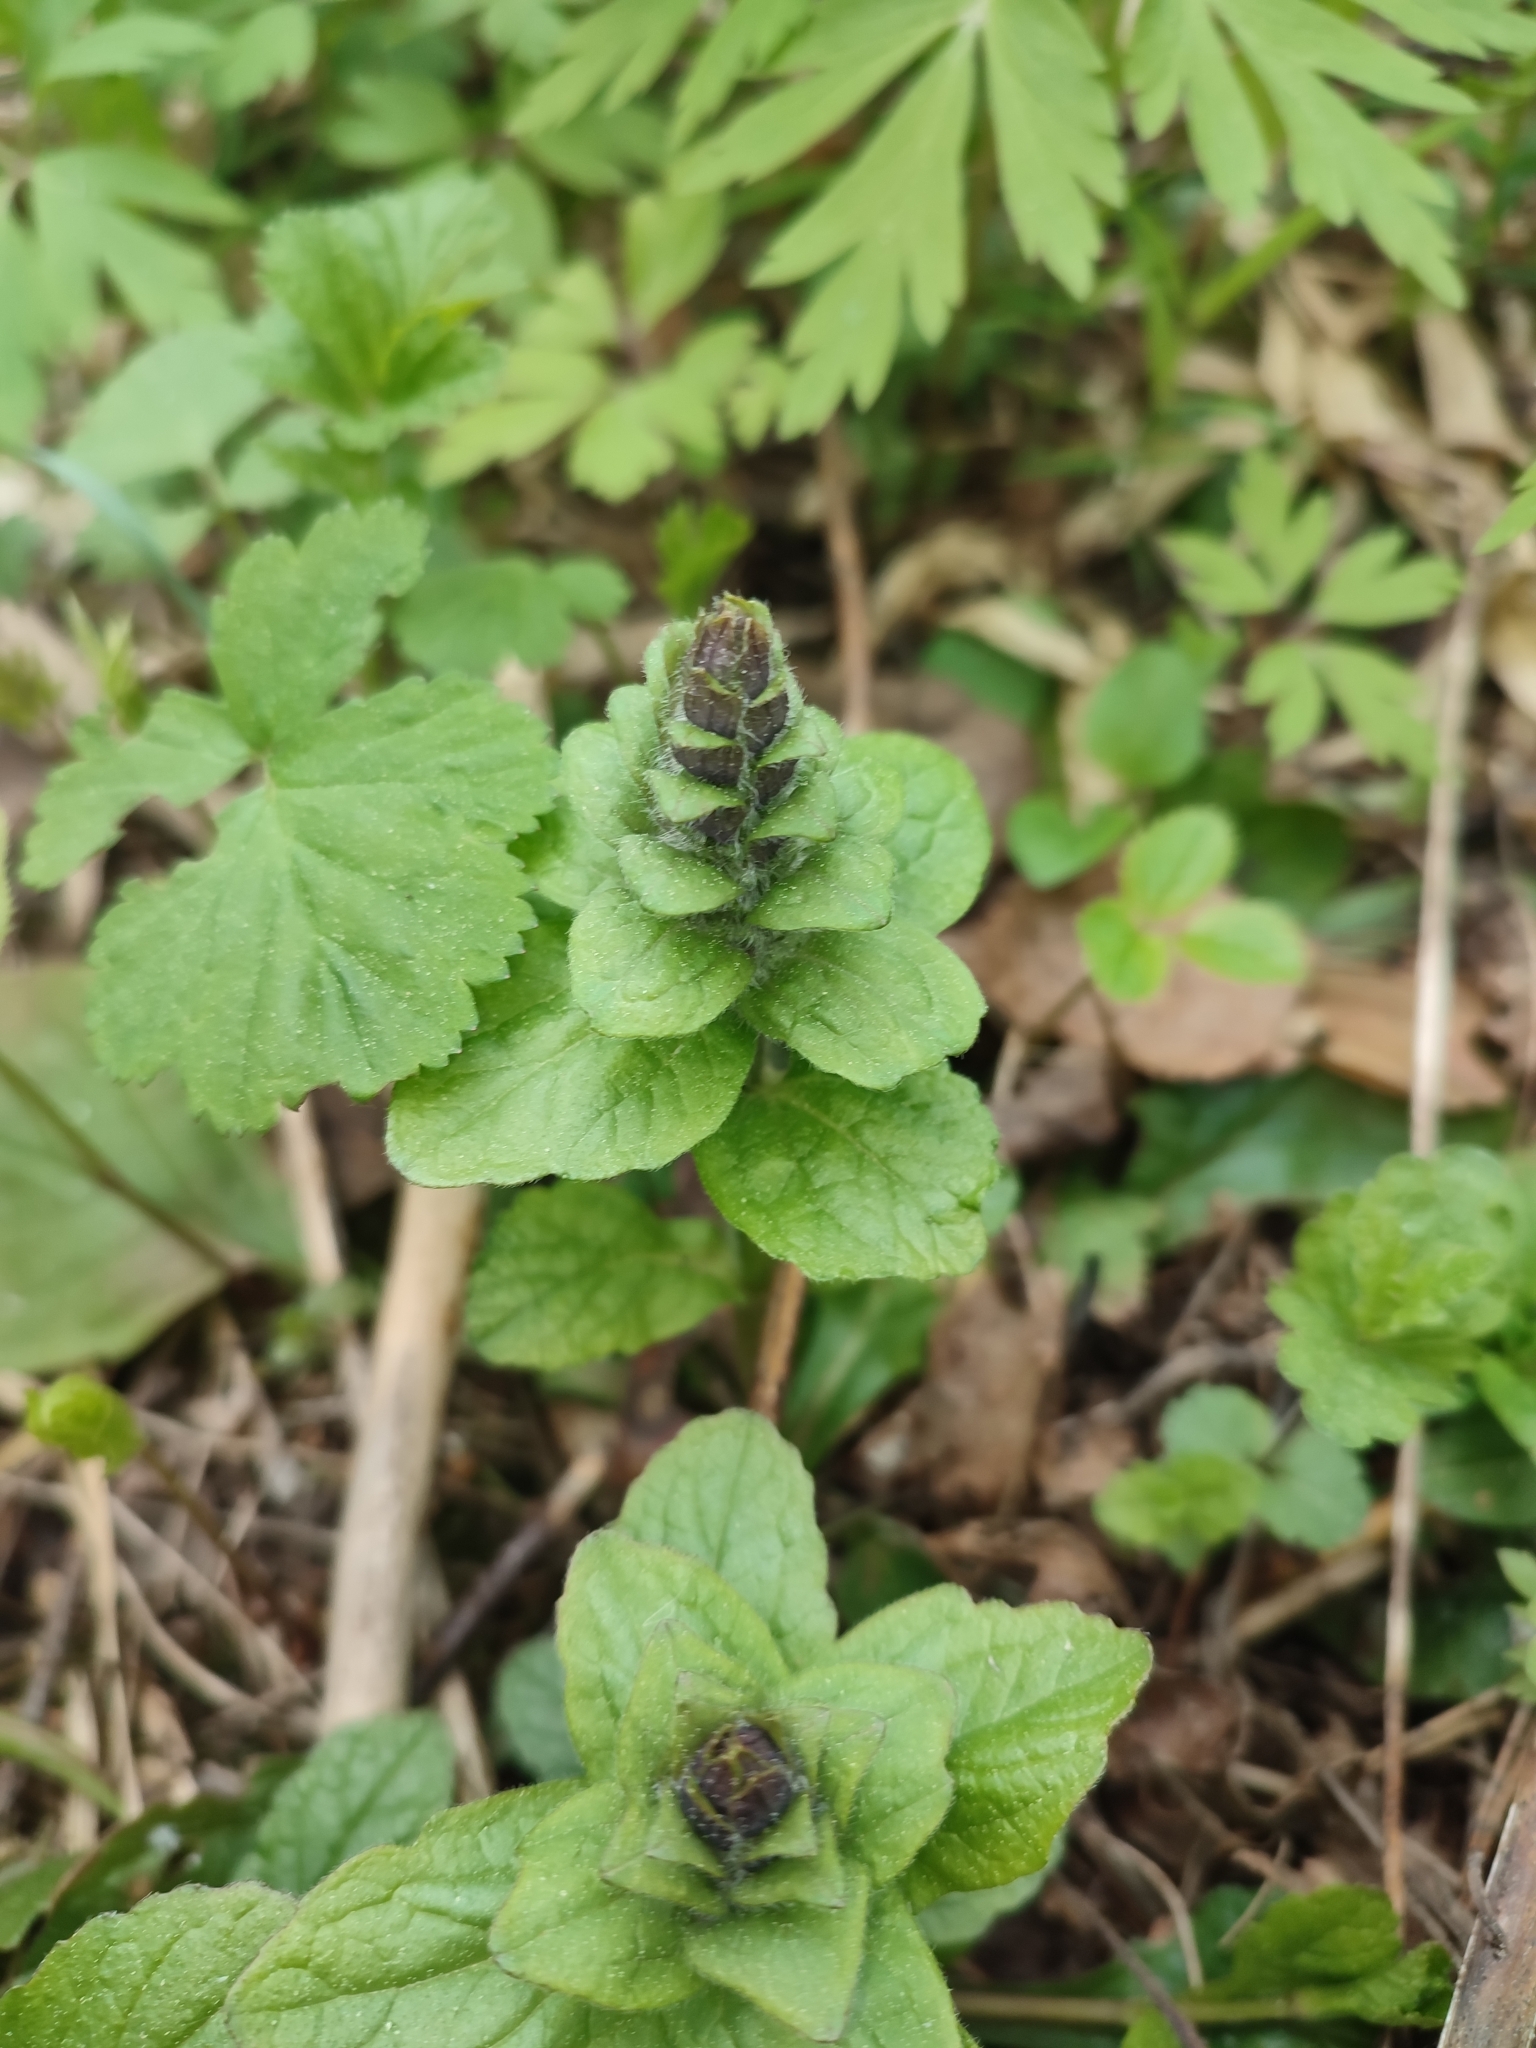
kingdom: Plantae
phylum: Tracheophyta
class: Magnoliopsida
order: Lamiales
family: Lamiaceae
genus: Ajuga
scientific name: Ajuga reptans
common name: Bugle
